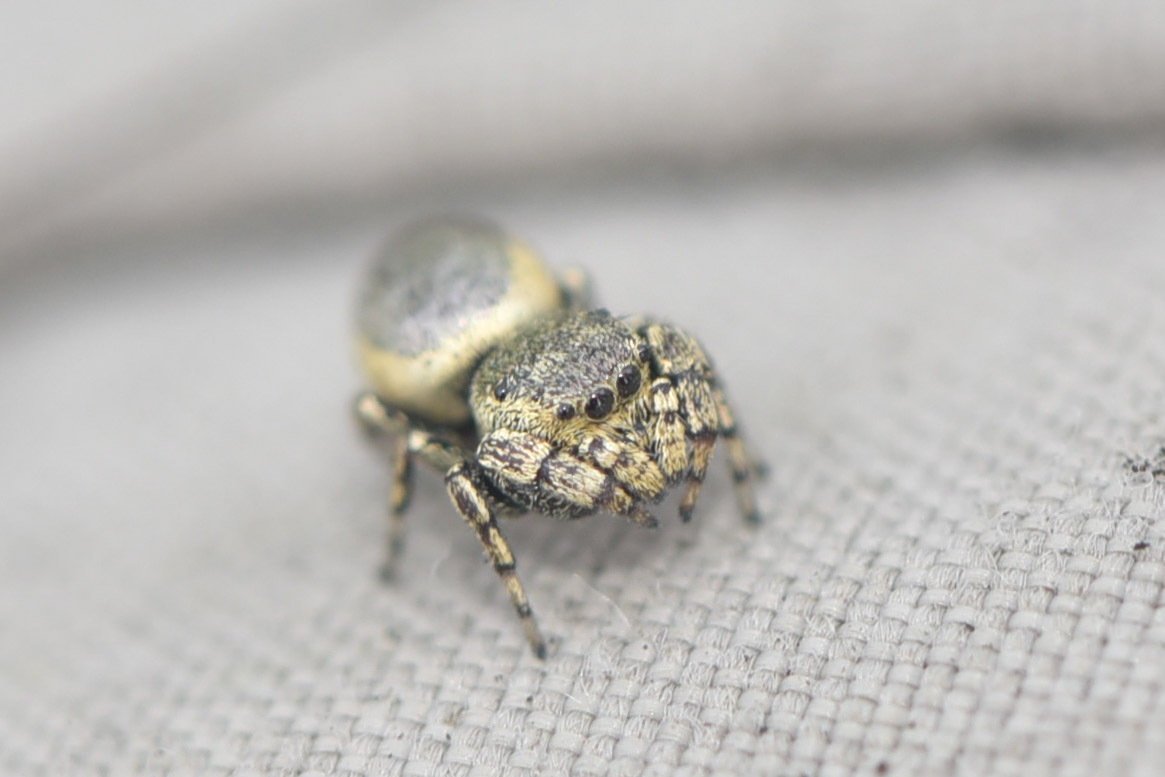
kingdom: Animalia
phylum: Arthropoda
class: Arachnida
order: Araneae
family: Salticidae
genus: Sassacus
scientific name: Sassacus papenhoei
